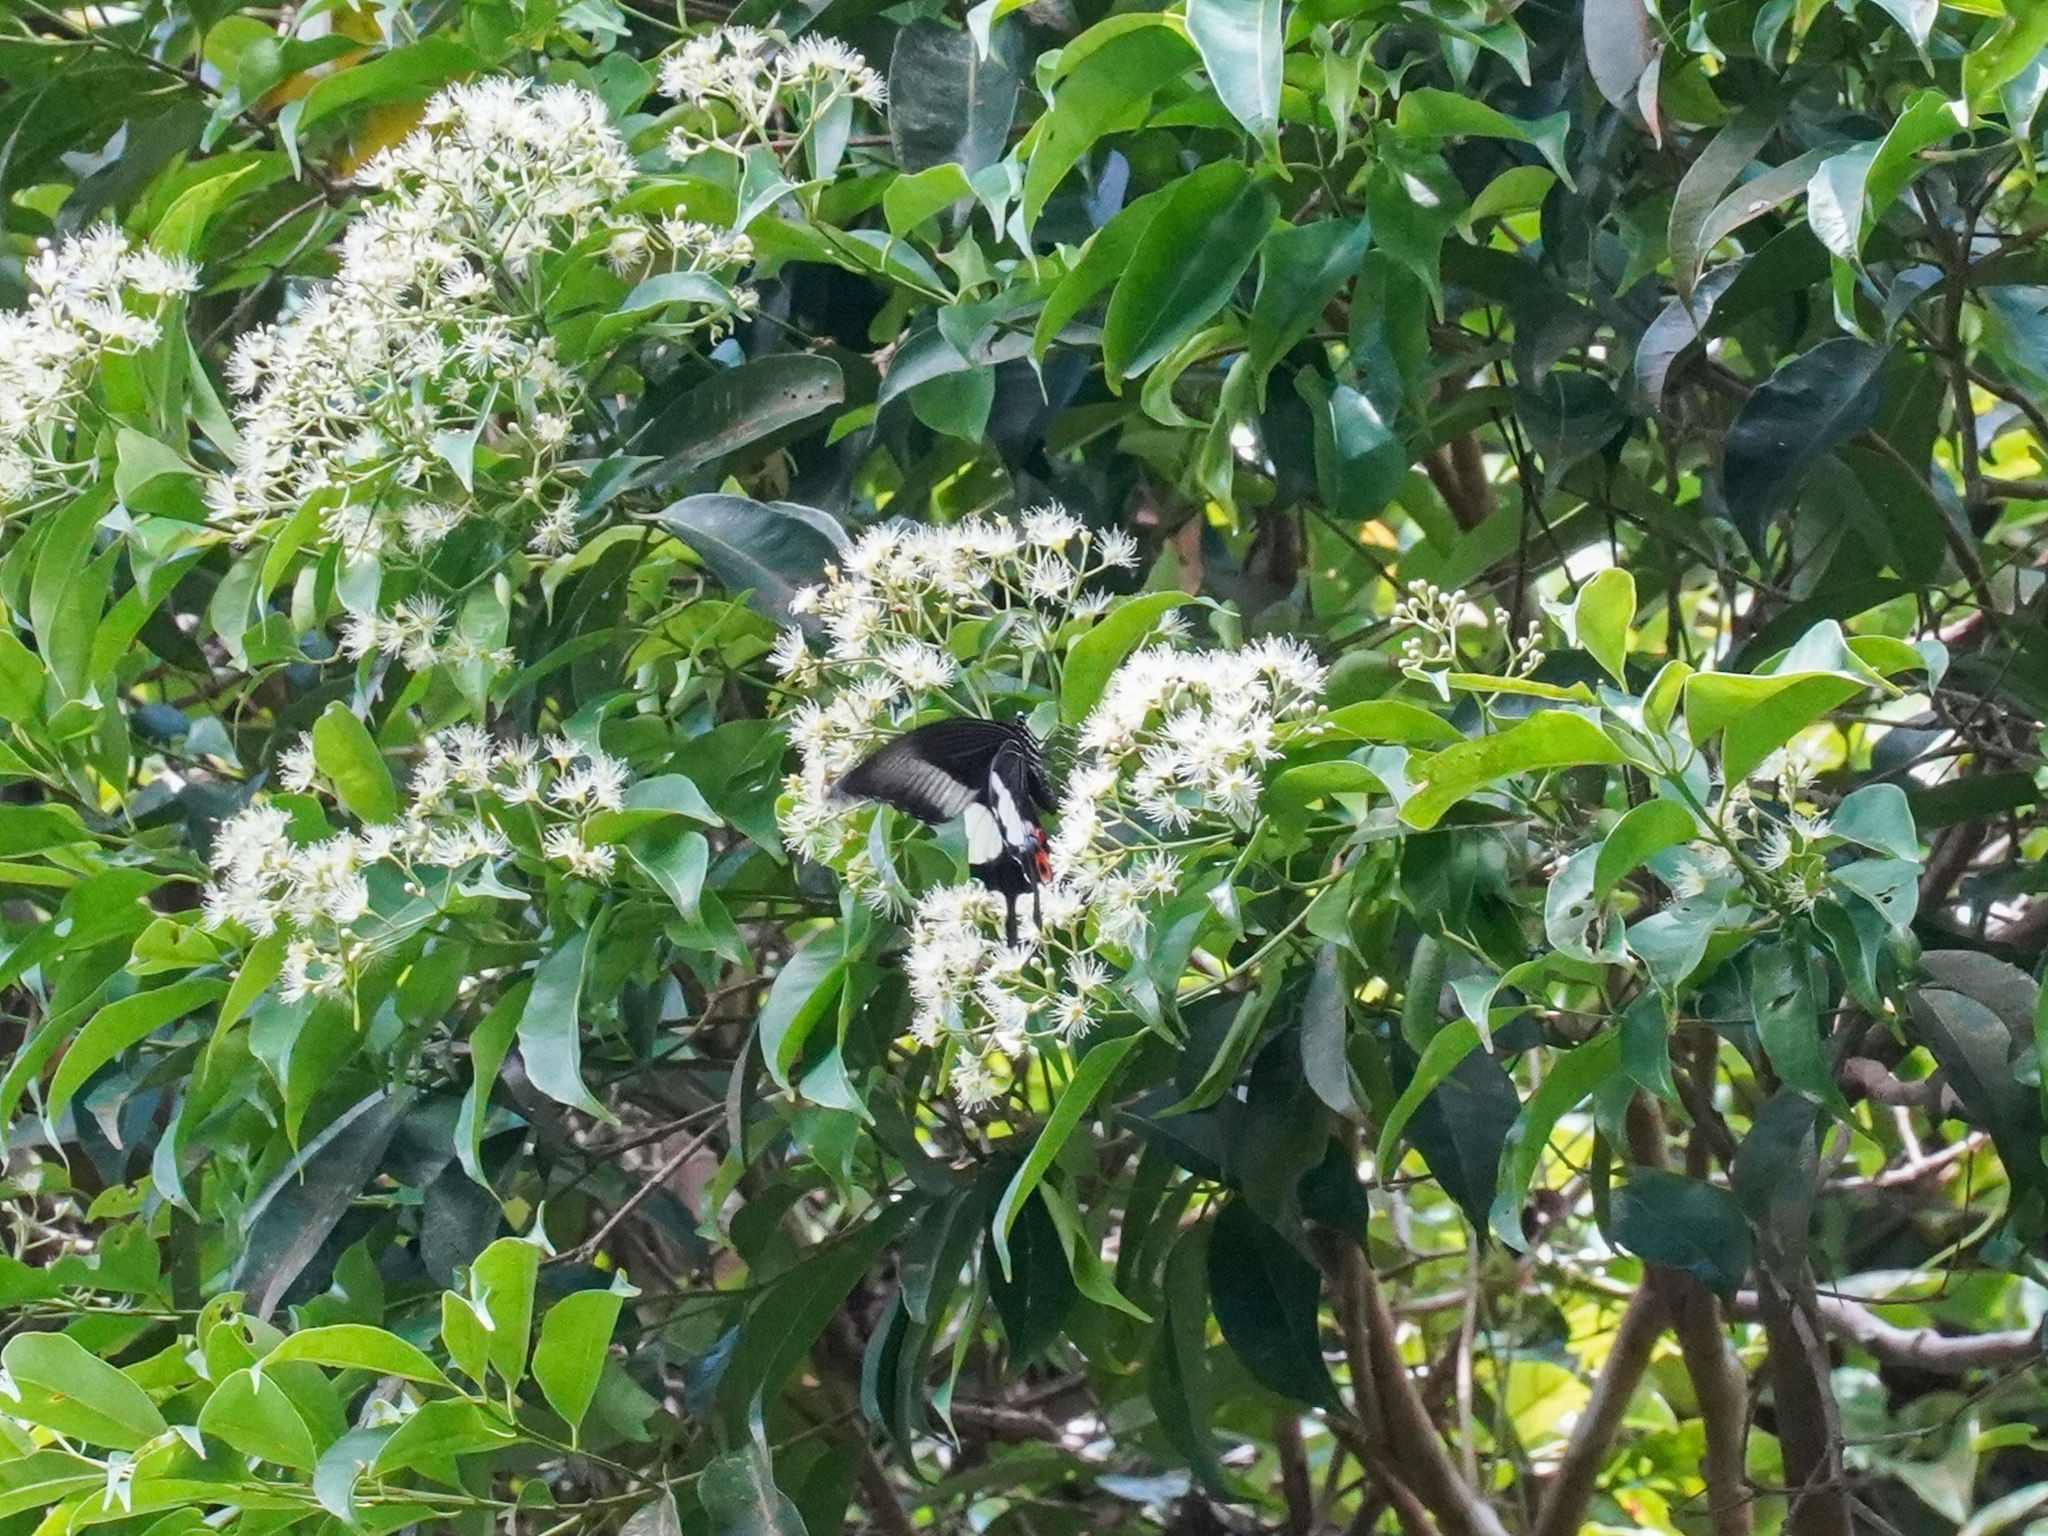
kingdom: Animalia
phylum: Arthropoda
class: Insecta
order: Lepidoptera
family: Papilionidae
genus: Papilio
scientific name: Papilio iswara
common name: Great helen swallowtail
